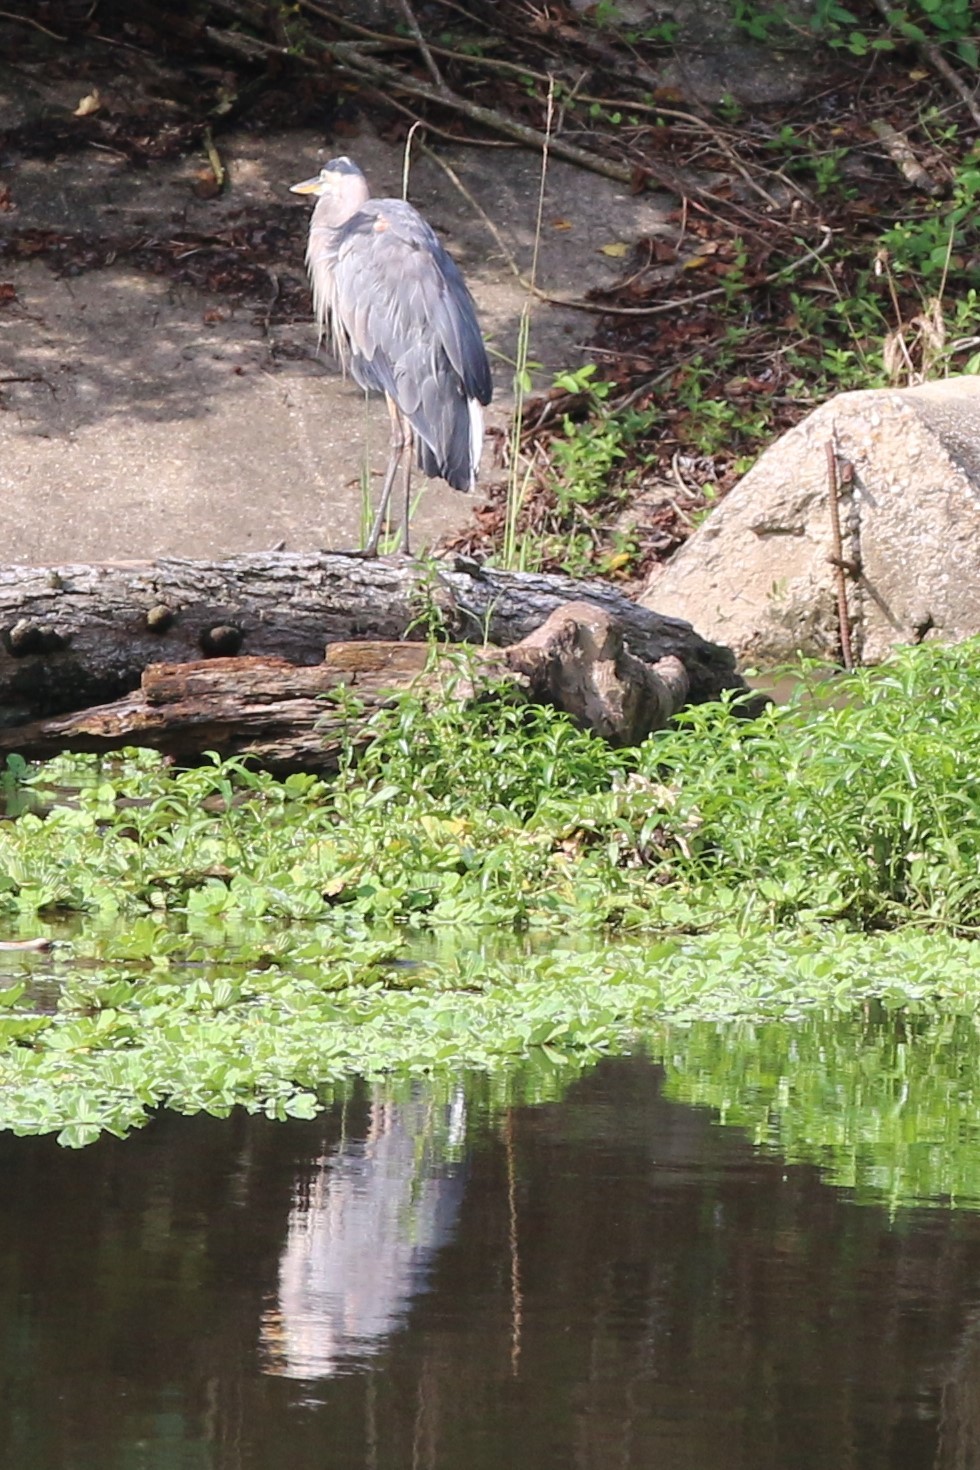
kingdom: Animalia
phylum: Chordata
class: Aves
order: Pelecaniformes
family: Ardeidae
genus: Ardea
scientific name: Ardea herodias
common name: Great blue heron
